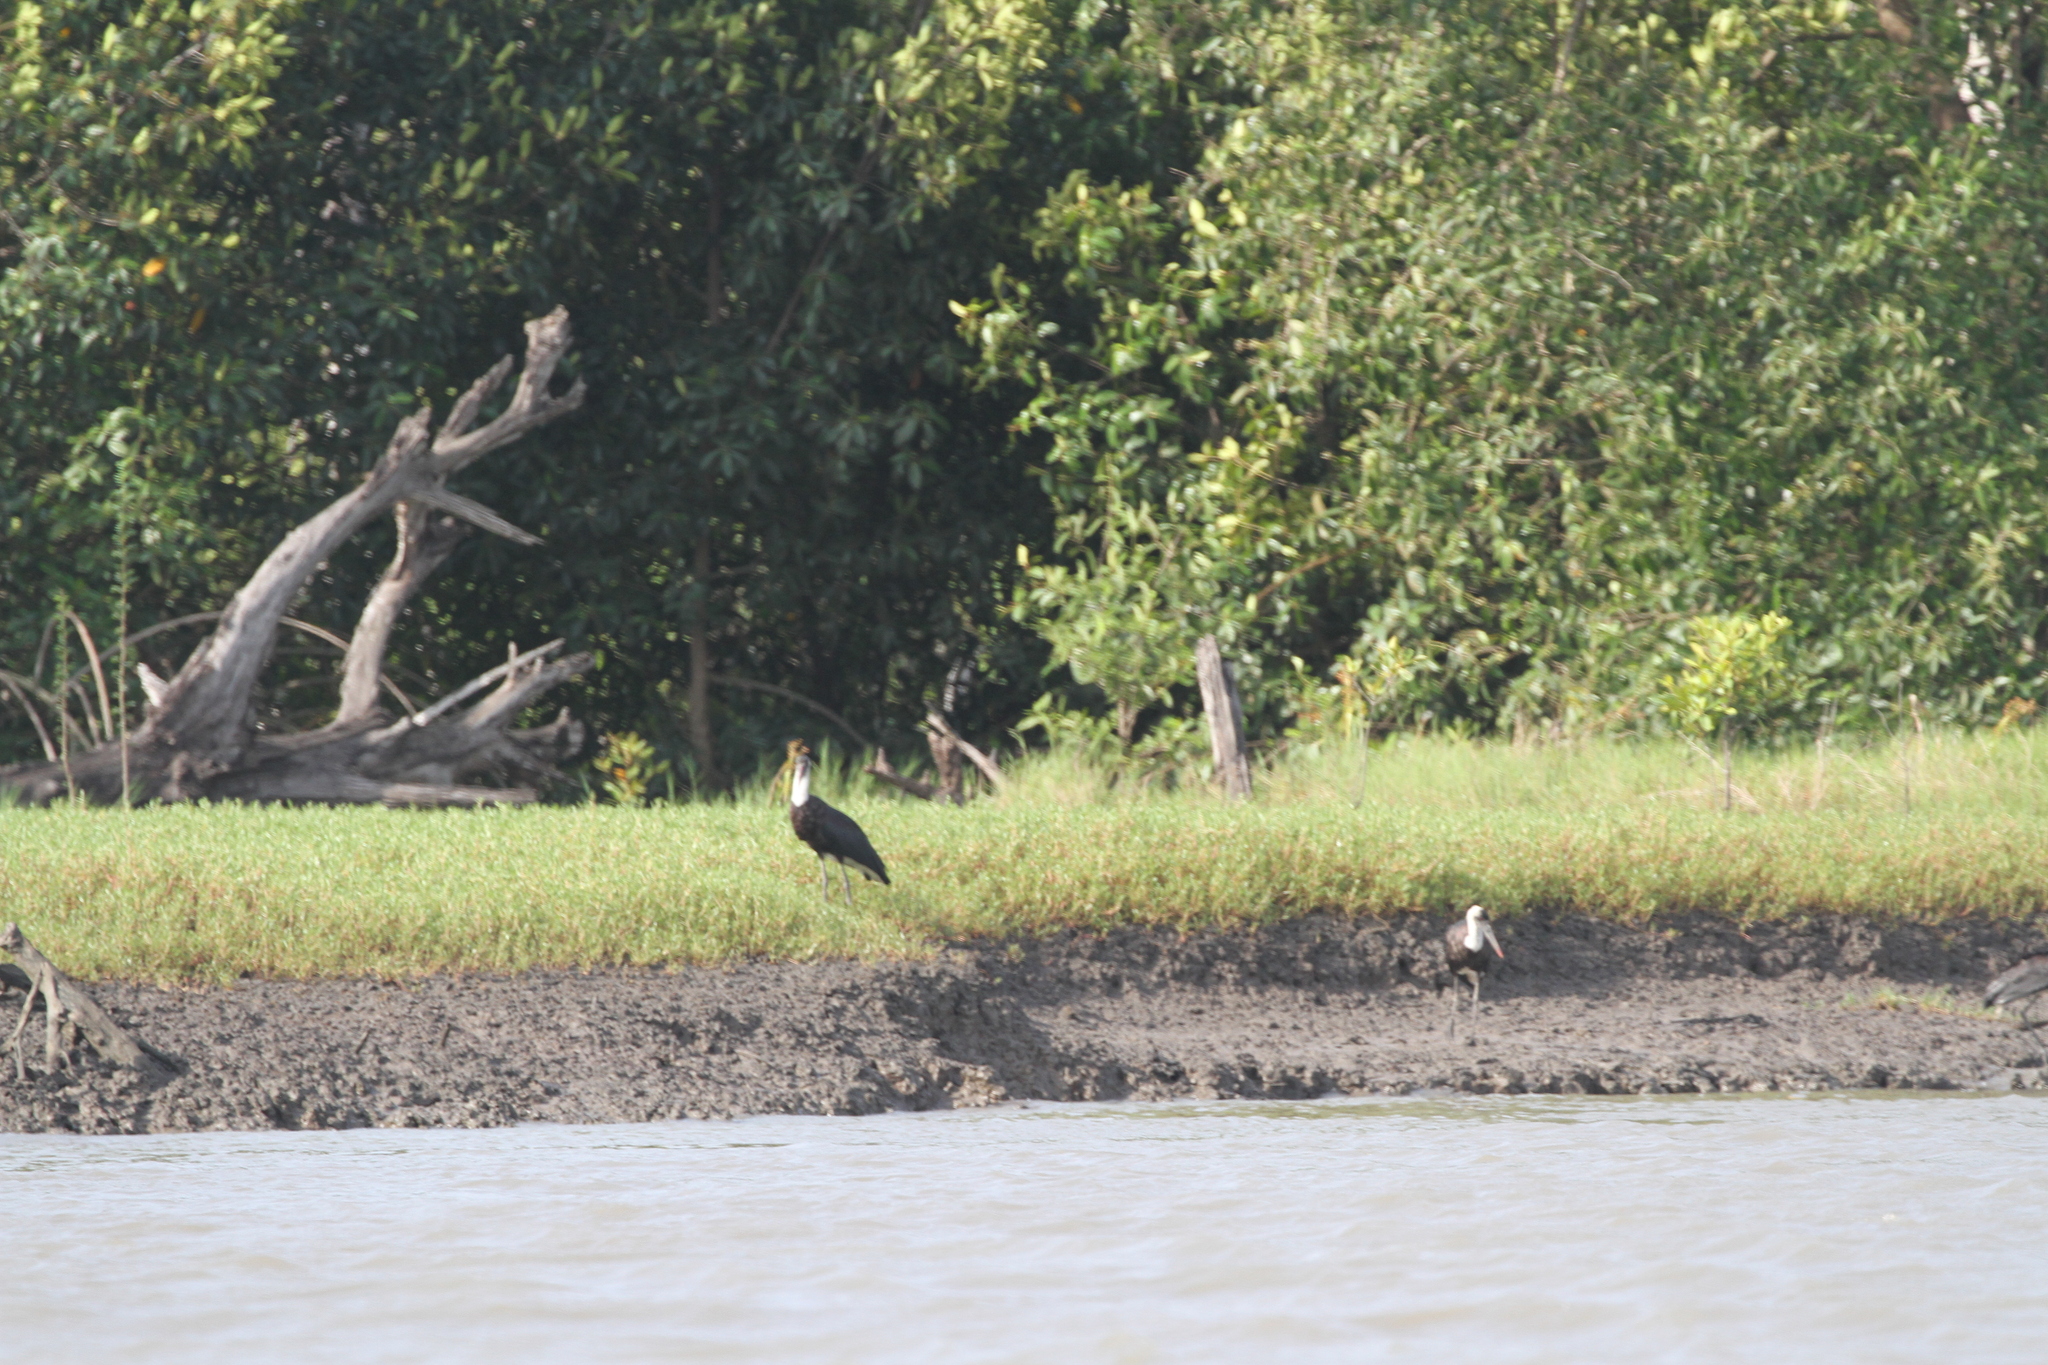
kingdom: Animalia
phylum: Chordata
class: Aves
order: Ciconiiformes
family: Ciconiidae
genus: Ciconia
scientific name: Ciconia microscelis
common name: African woollyneck
